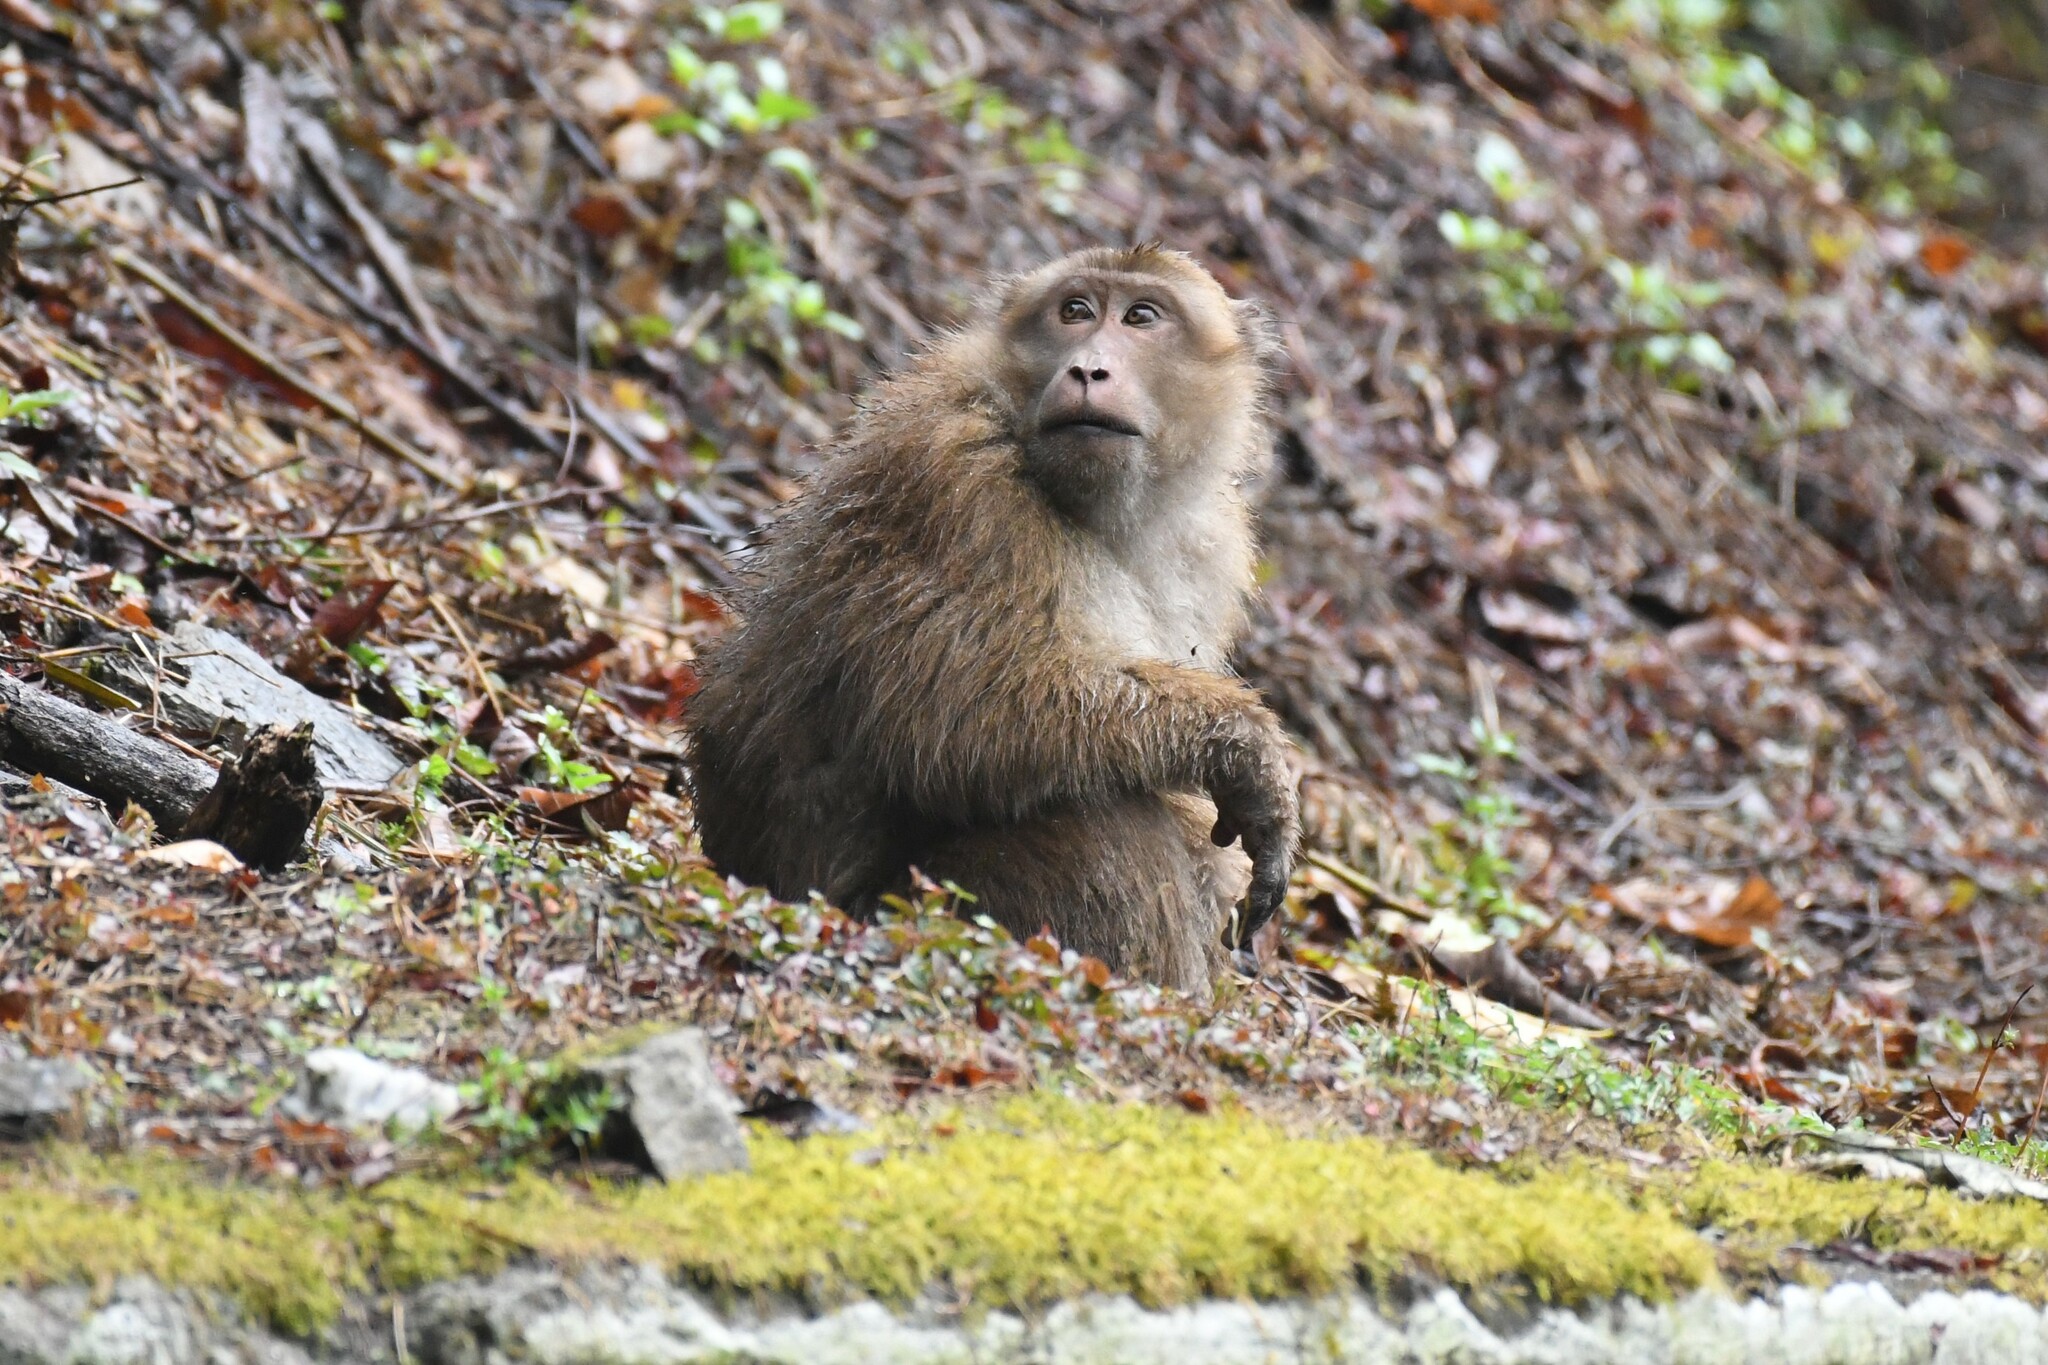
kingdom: Animalia
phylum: Chordata
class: Mammalia
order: Primates
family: Cercopithecidae
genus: Macaca
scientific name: Macaca assamensis
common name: Assam macaque
